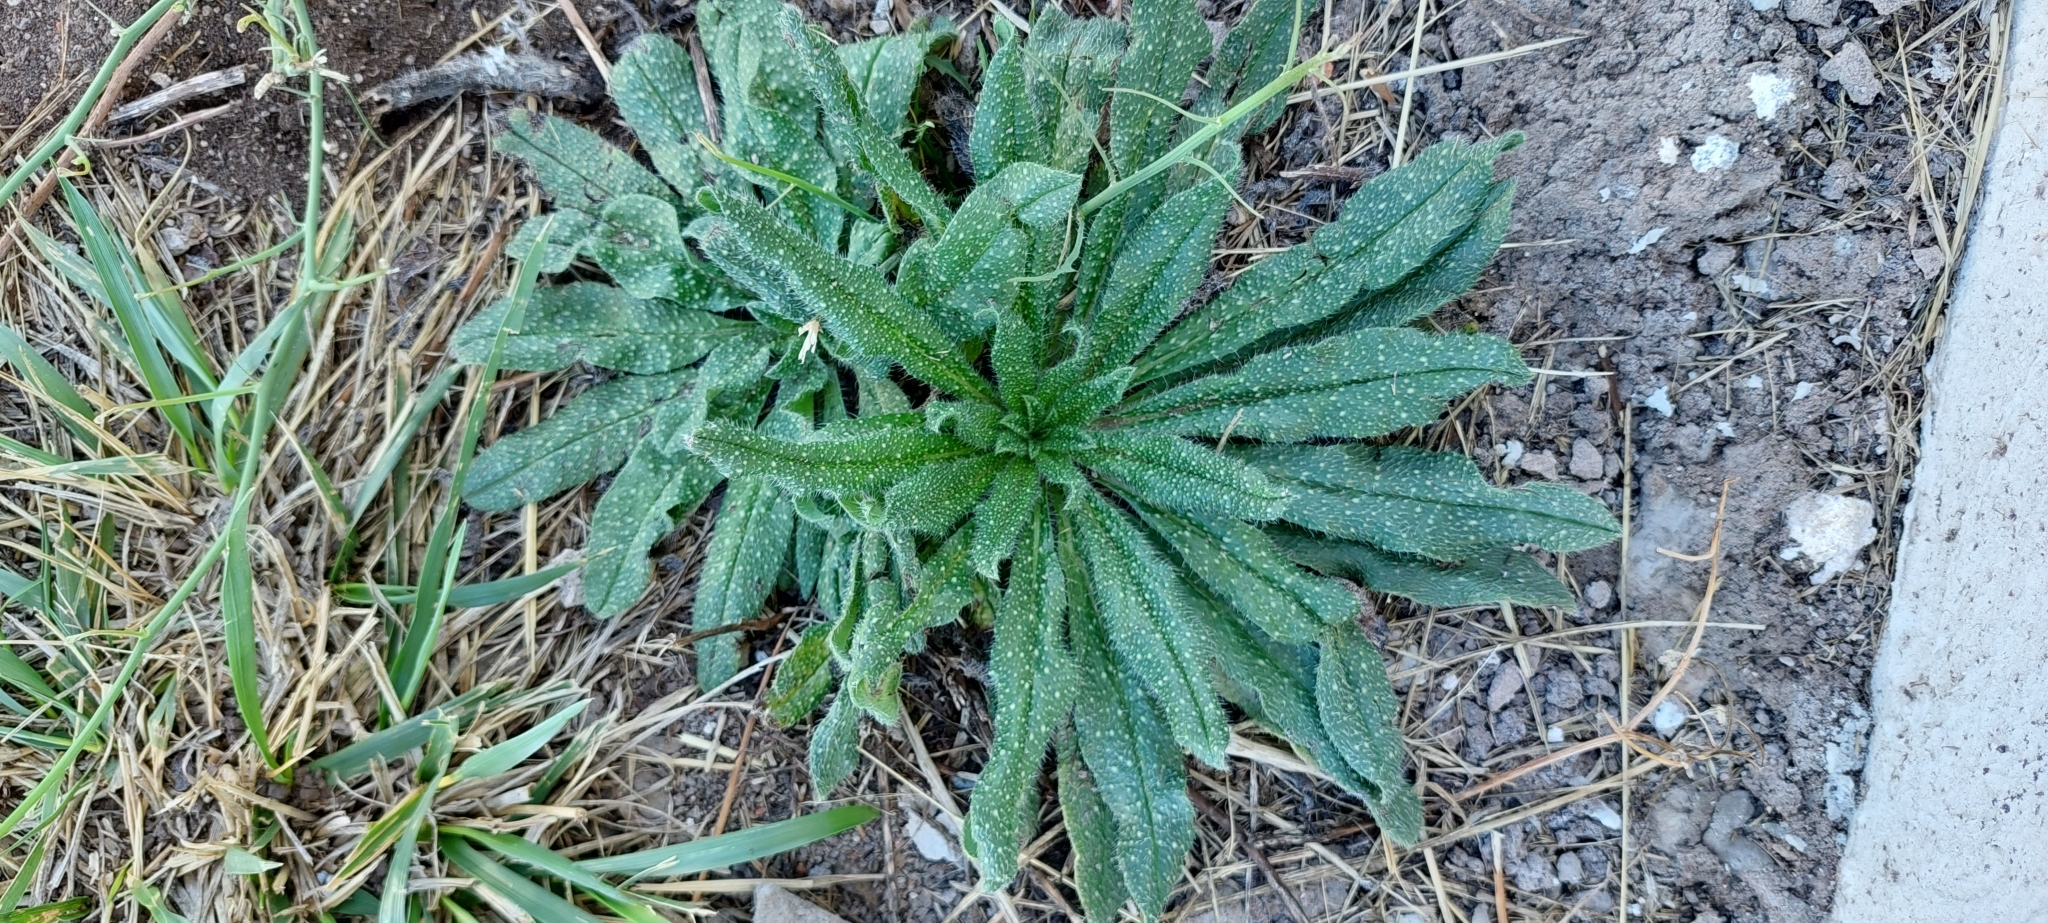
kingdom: Plantae
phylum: Tracheophyta
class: Magnoliopsida
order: Boraginales
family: Boraginaceae
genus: Echium
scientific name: Echium vulgare
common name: Common viper's bugloss
